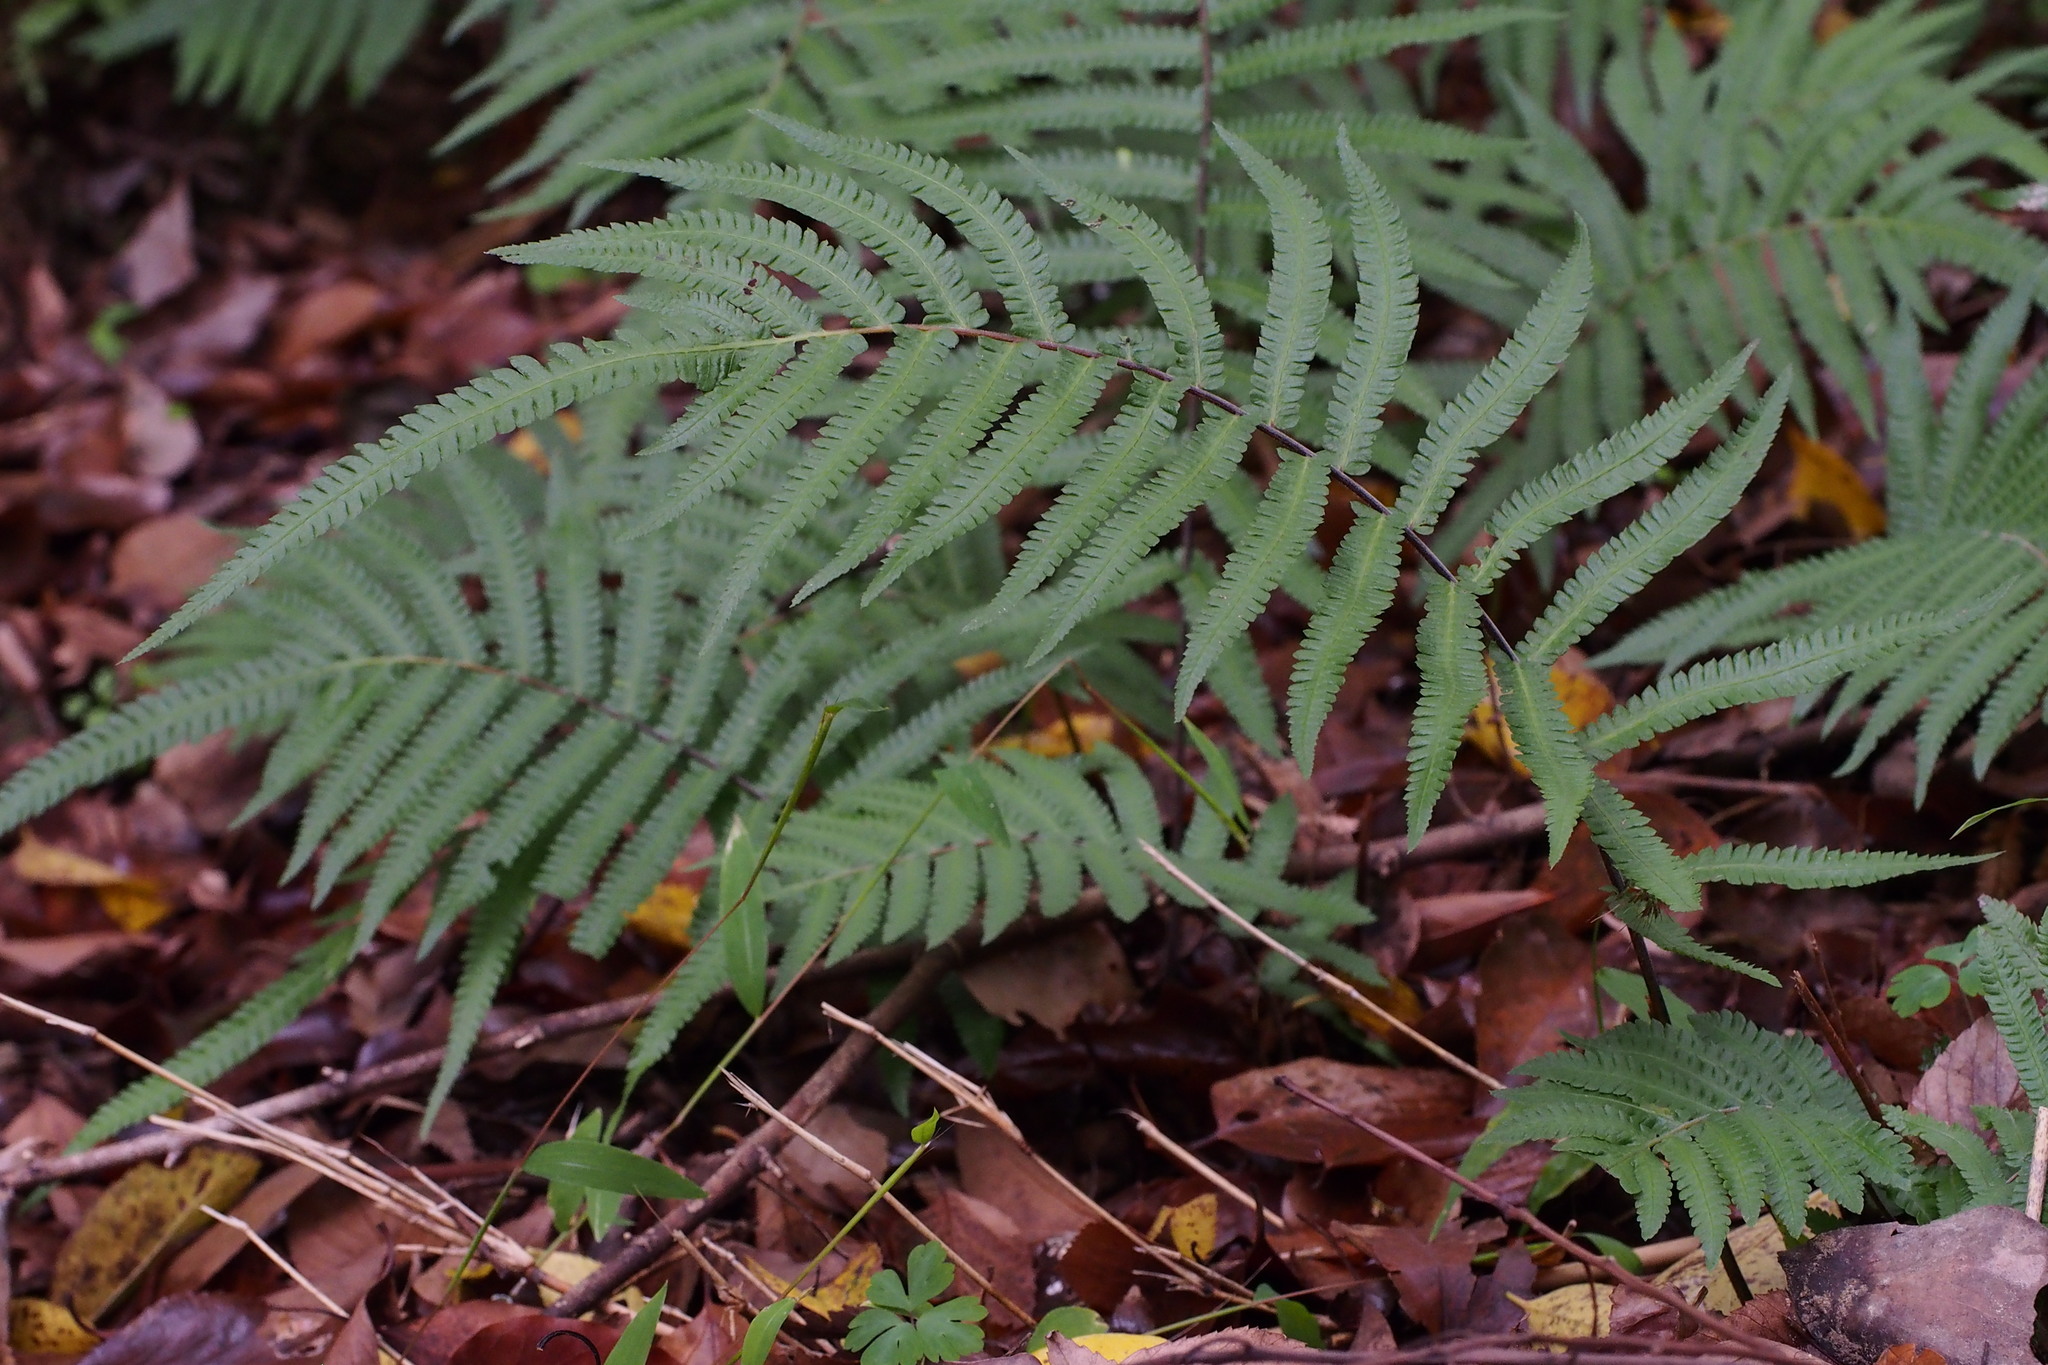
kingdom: Plantae
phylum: Tracheophyta
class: Polypodiopsida
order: Polypodiales
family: Thelypteridaceae
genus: Christella
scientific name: Christella acuminata
